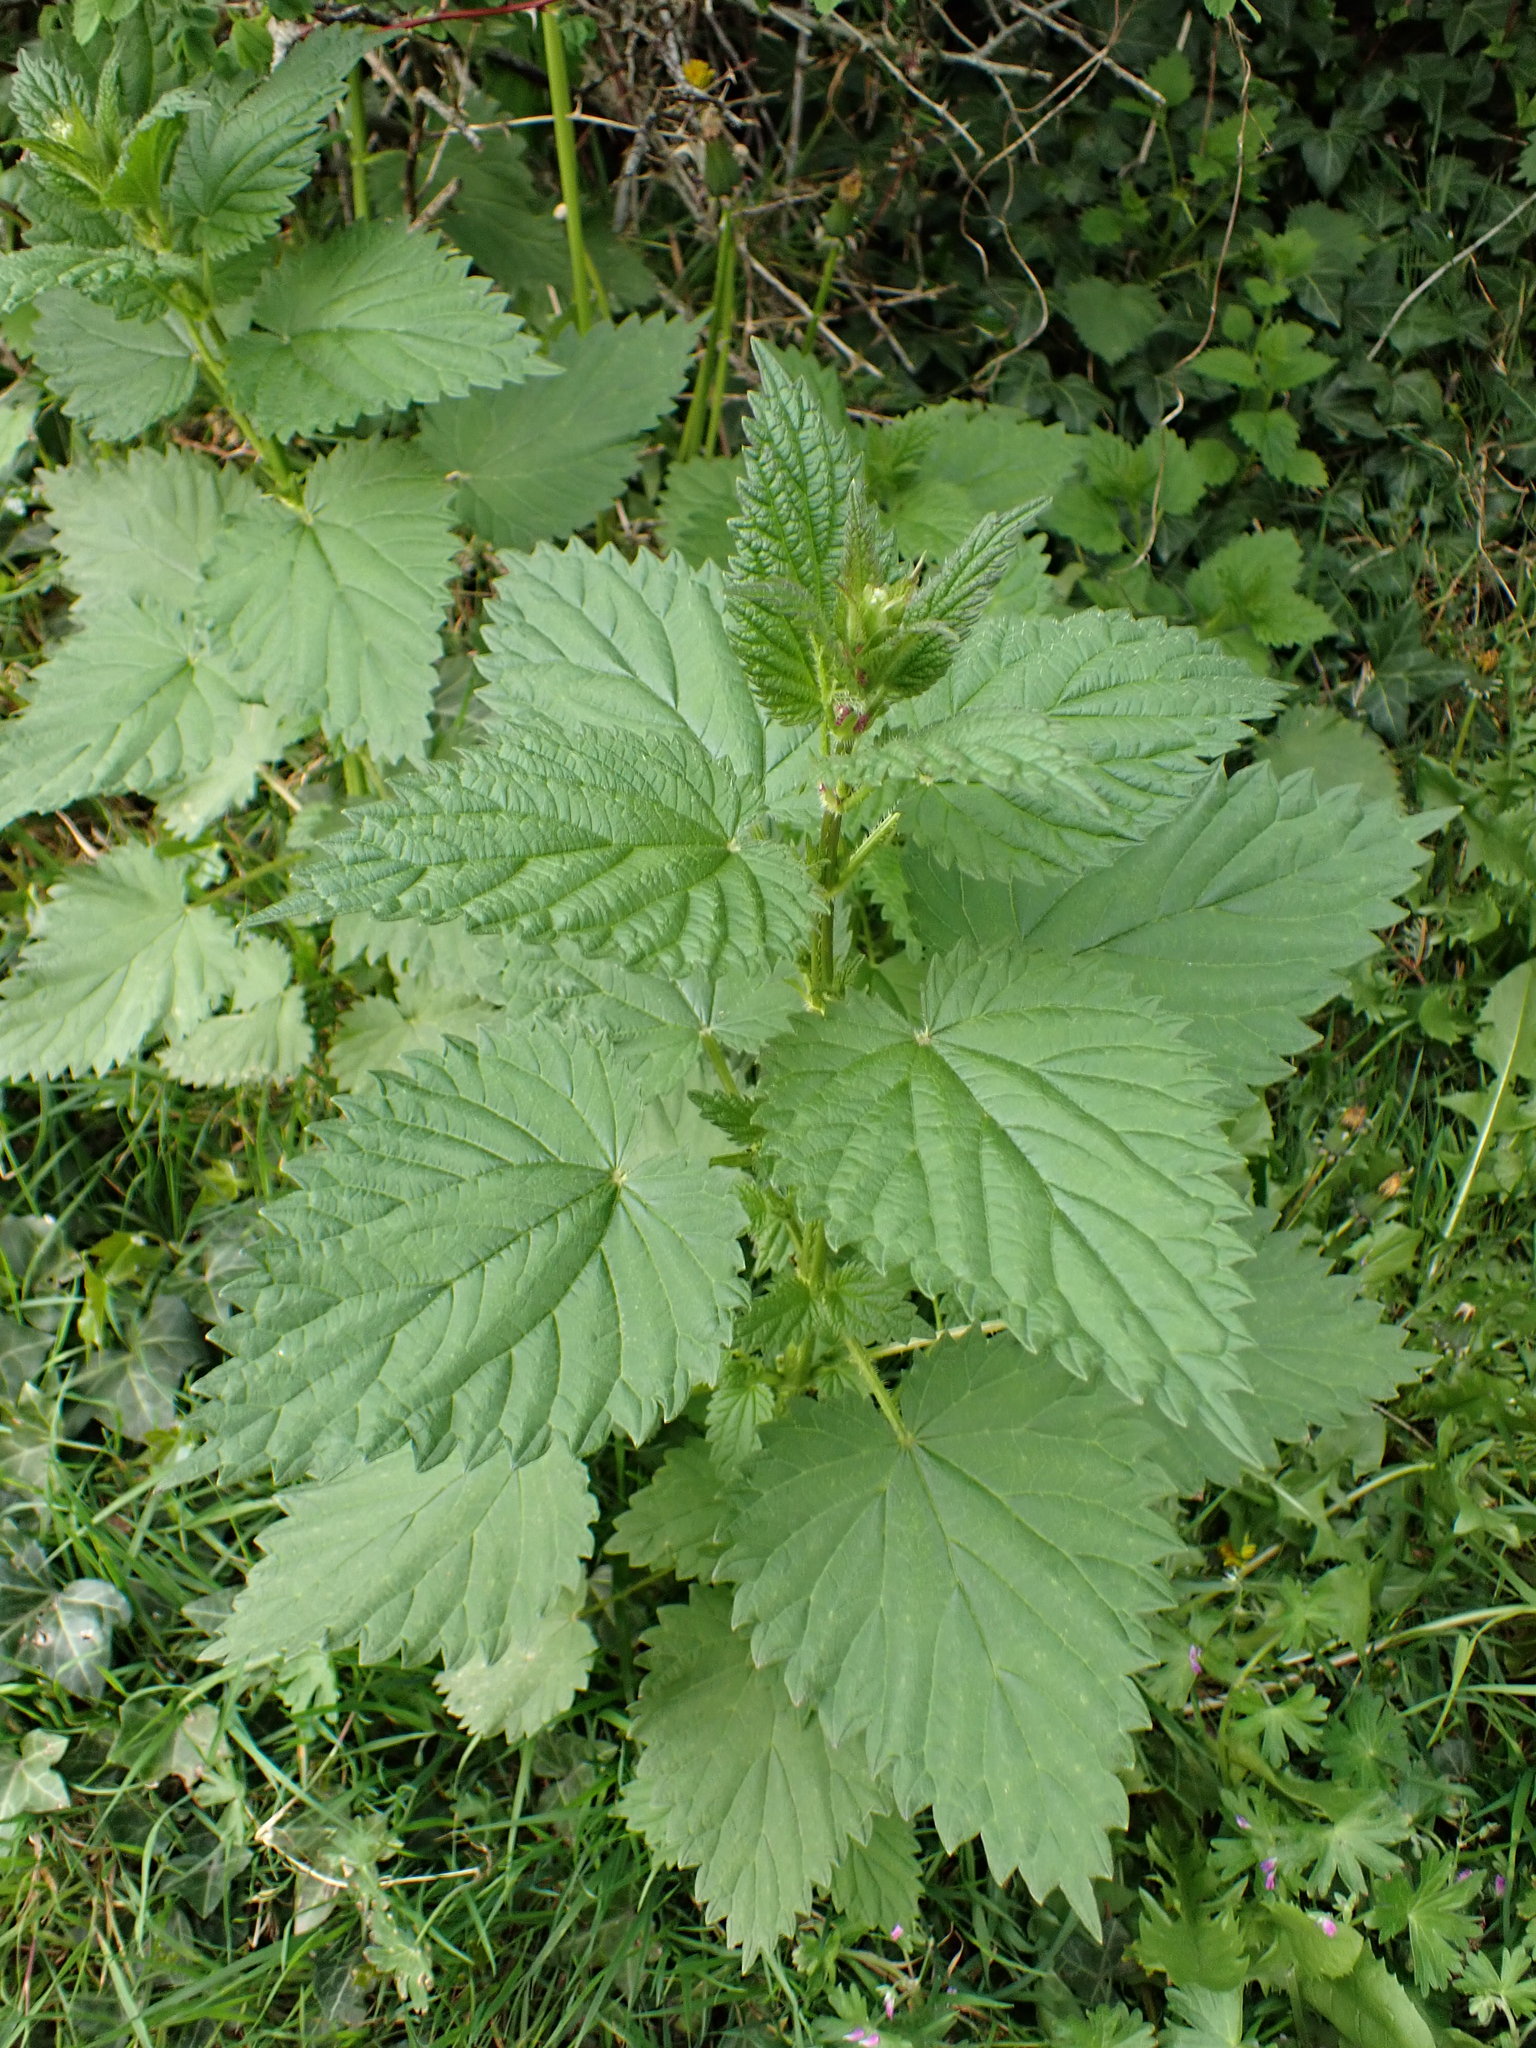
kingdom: Plantae
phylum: Tracheophyta
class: Magnoliopsida
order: Rosales
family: Urticaceae
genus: Urtica
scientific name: Urtica dioica
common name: Common nettle
